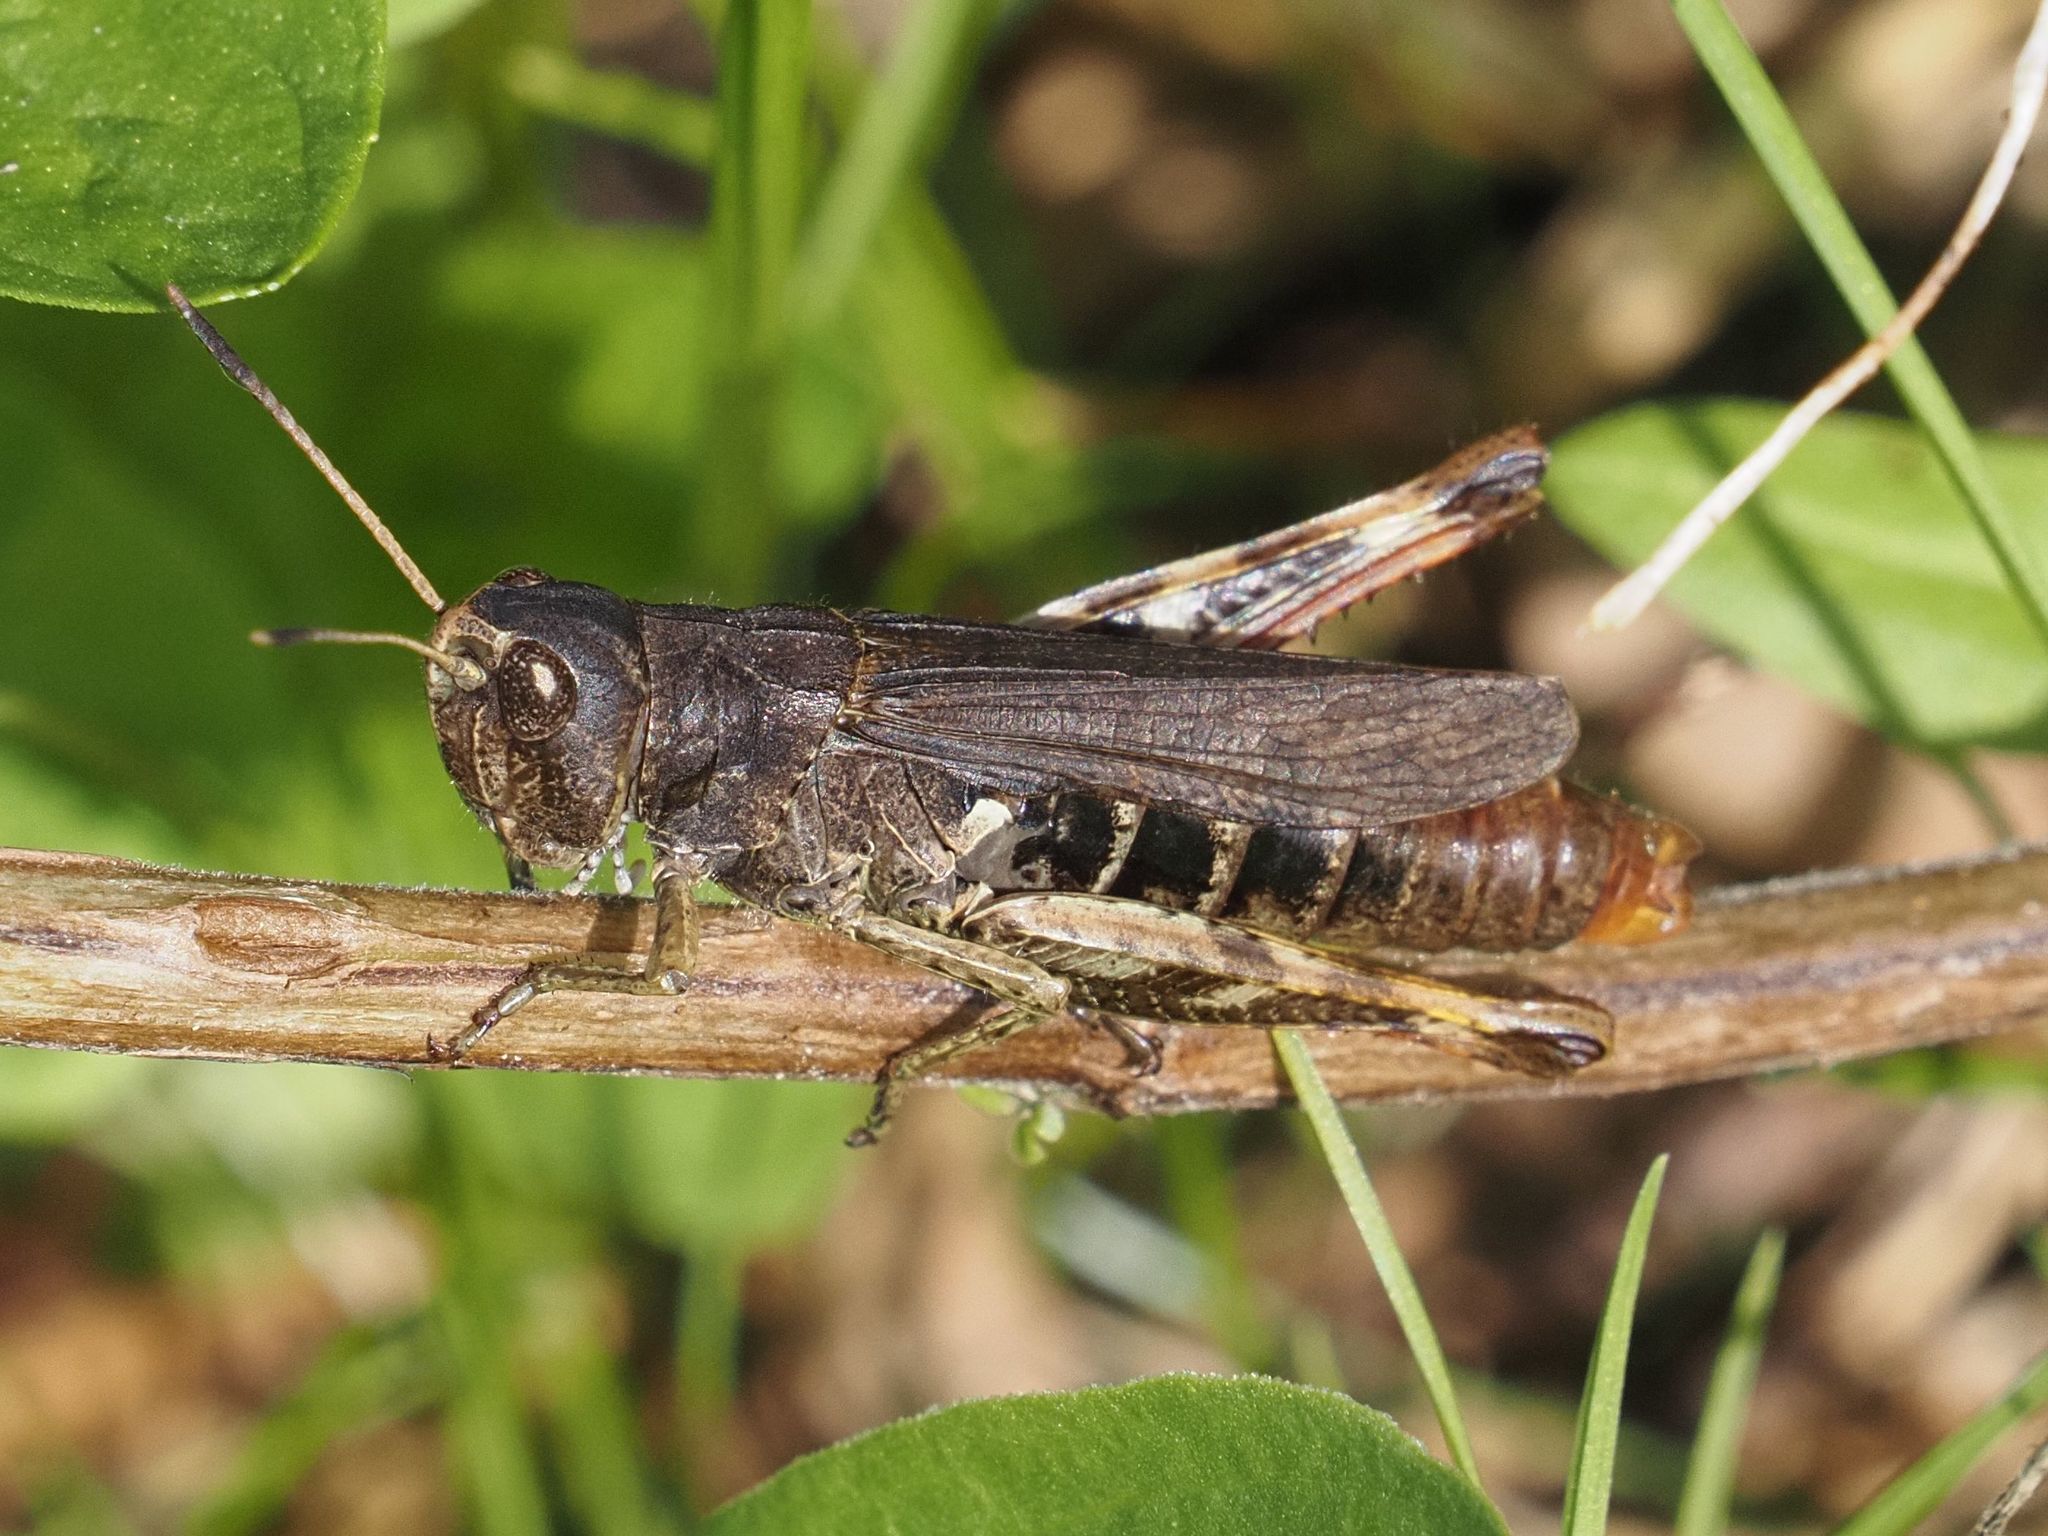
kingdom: Animalia
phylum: Arthropoda
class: Insecta
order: Orthoptera
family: Acrididae
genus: Gomphocerippus
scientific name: Gomphocerippus rufus
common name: Rufous grasshopper
